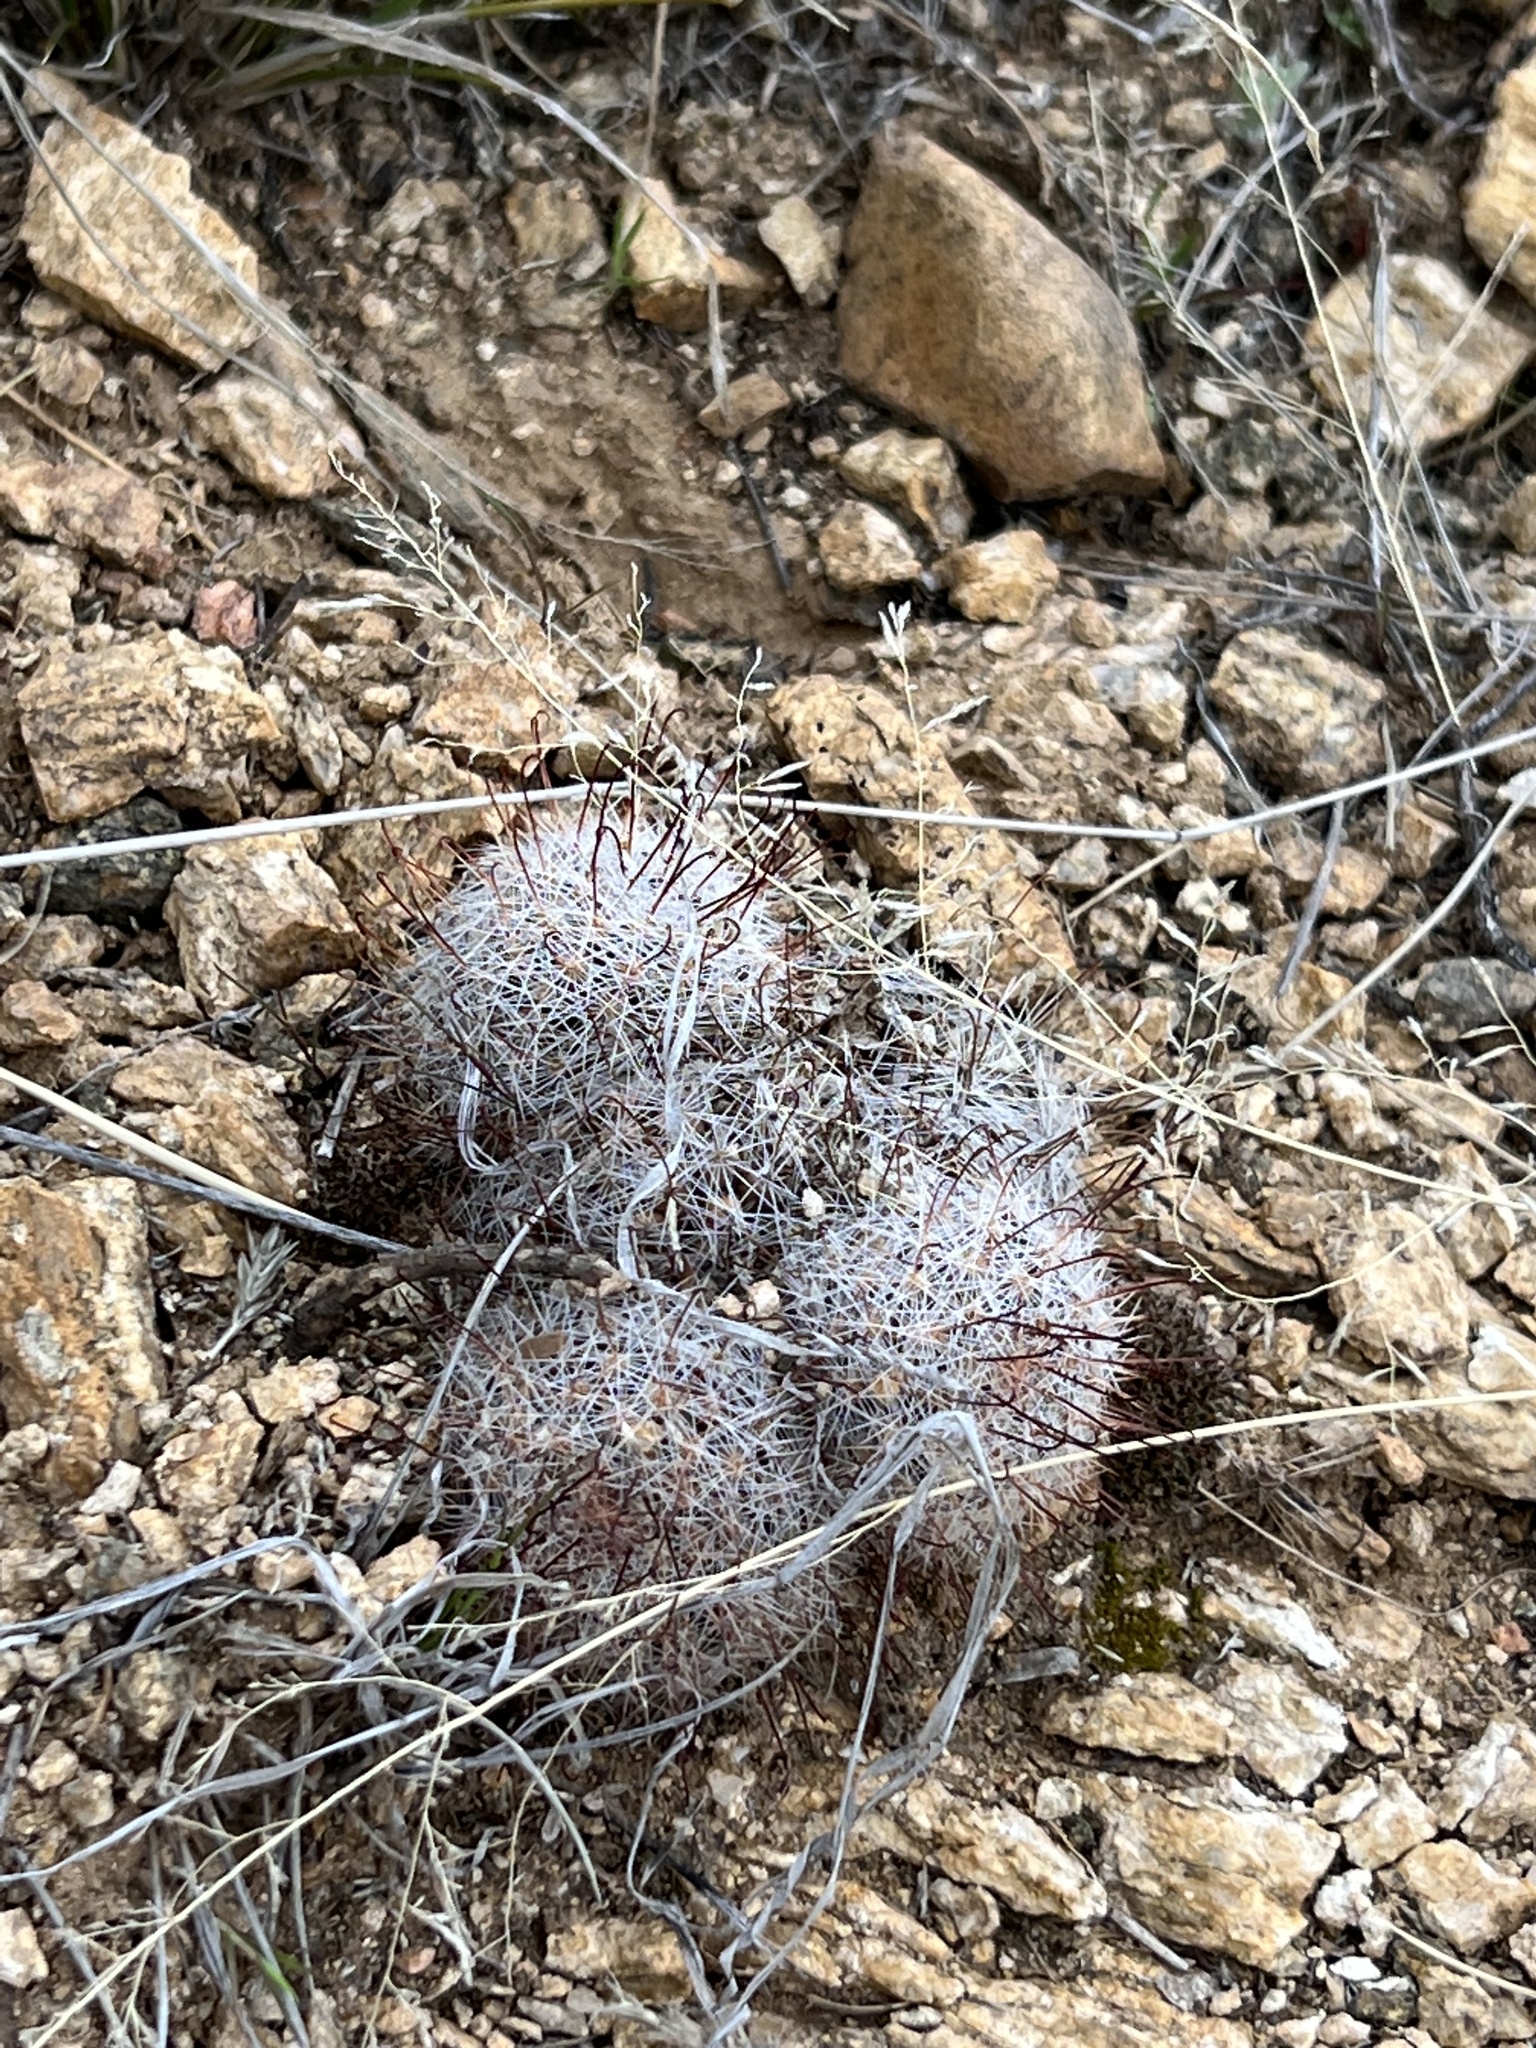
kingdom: Plantae
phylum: Tracheophyta
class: Magnoliopsida
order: Caryophyllales
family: Cactaceae
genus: Cochemiea
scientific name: Cochemiea grahamii
